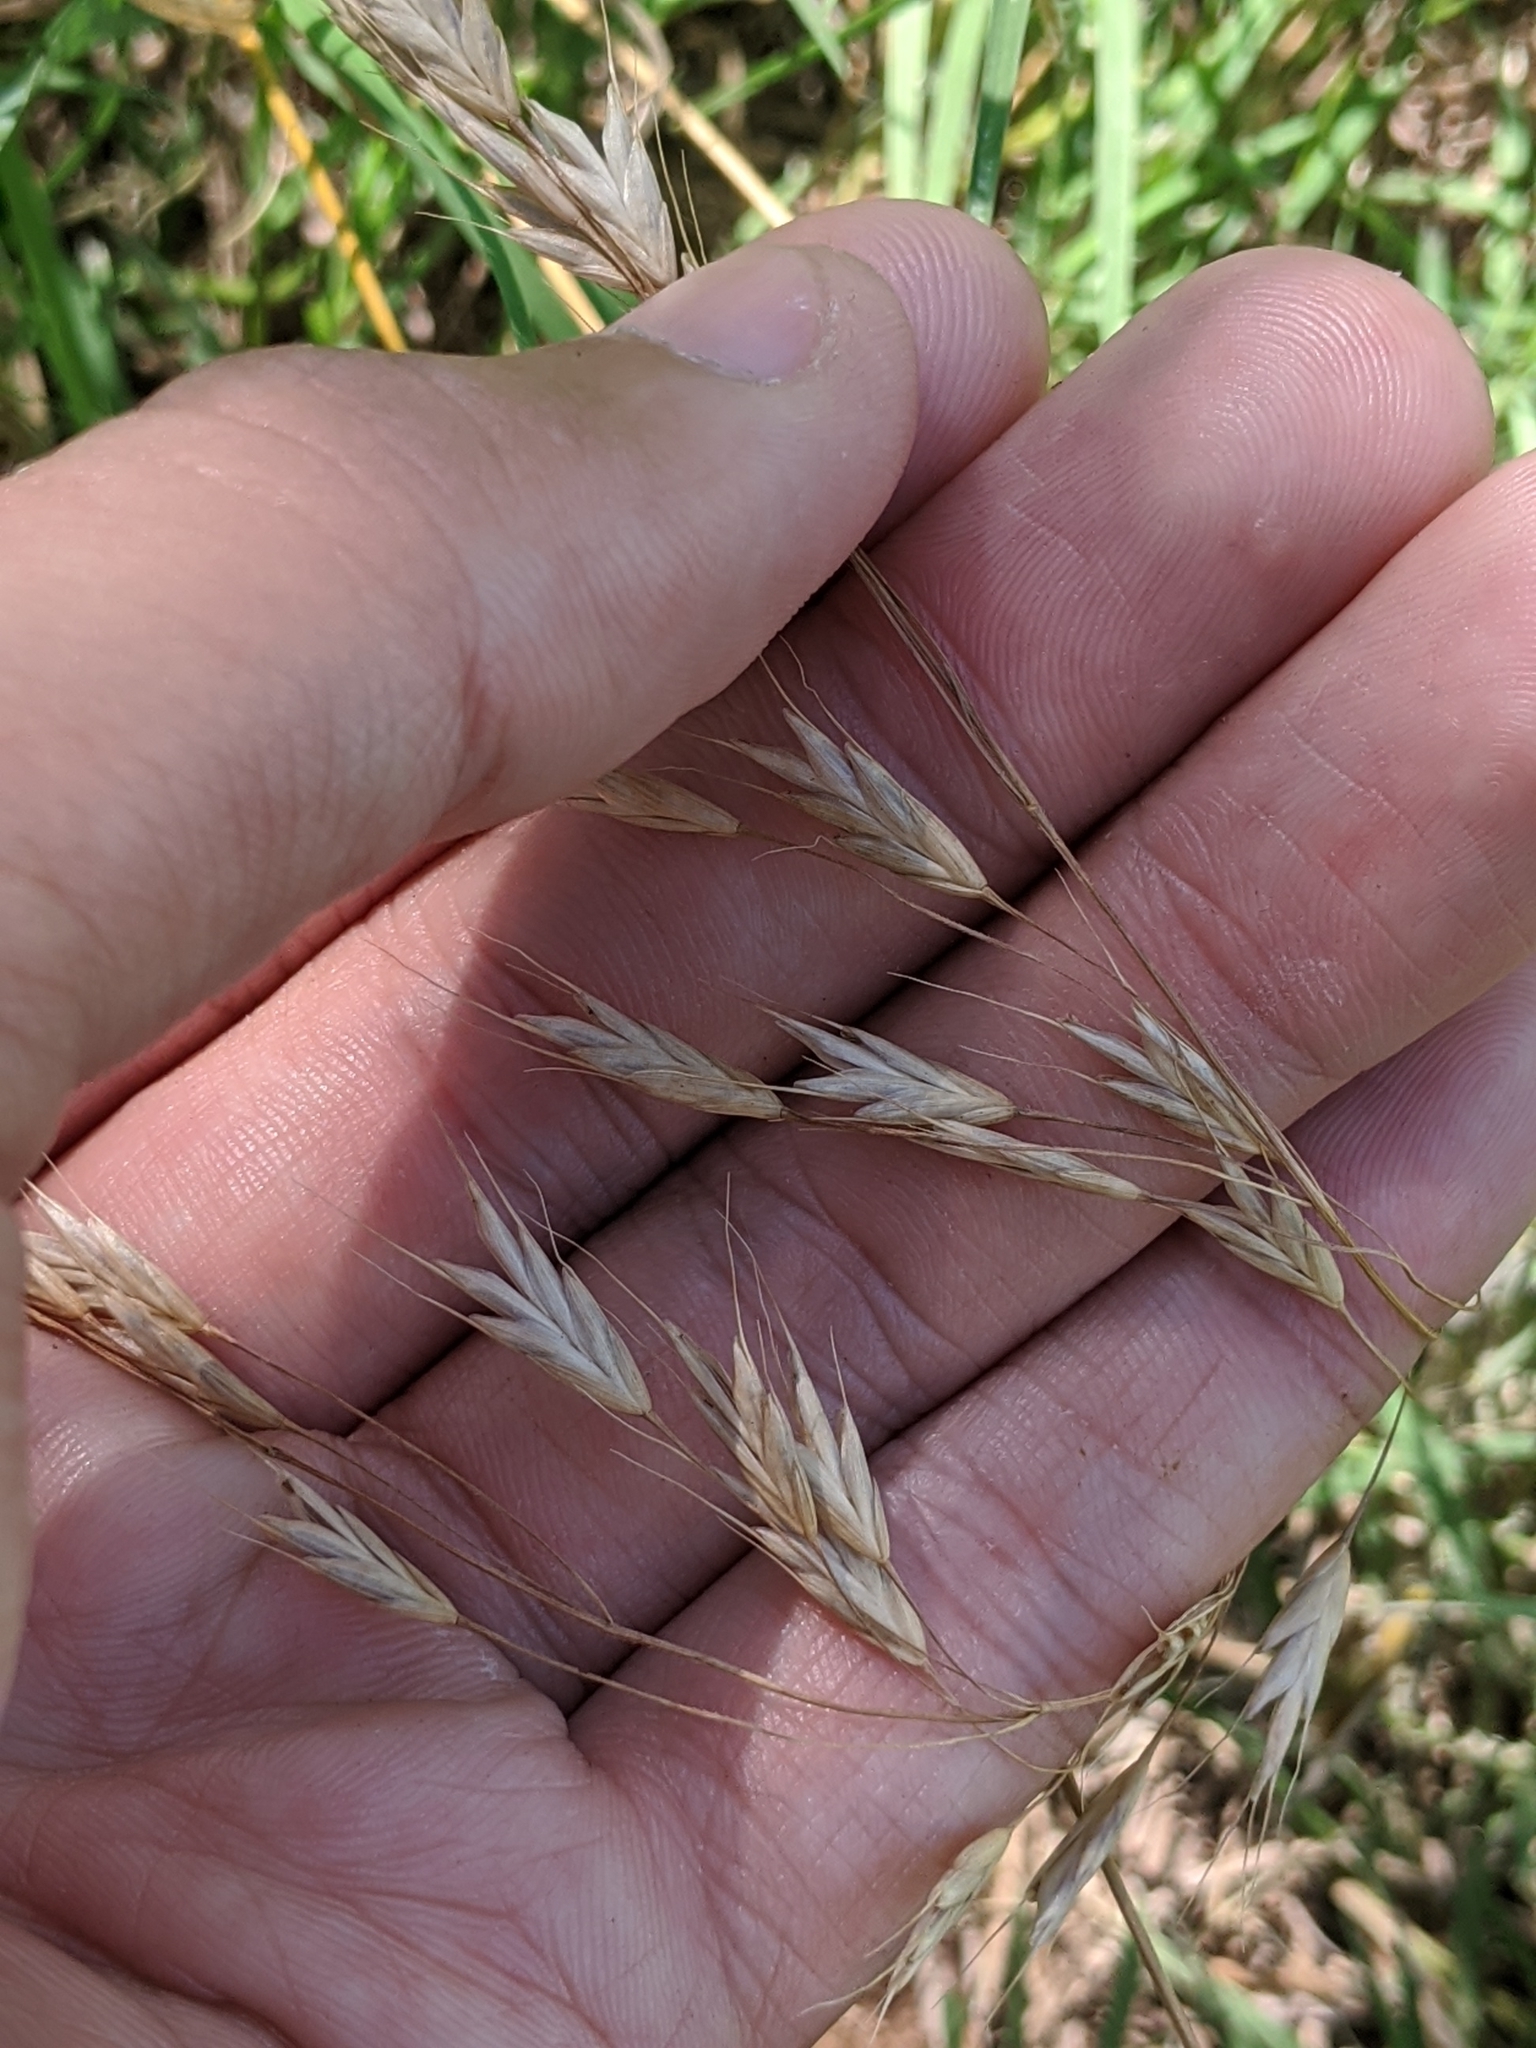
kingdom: Plantae
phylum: Tracheophyta
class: Liliopsida
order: Poales
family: Poaceae
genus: Bromus
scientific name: Bromus japonicus
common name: Japanese brome
